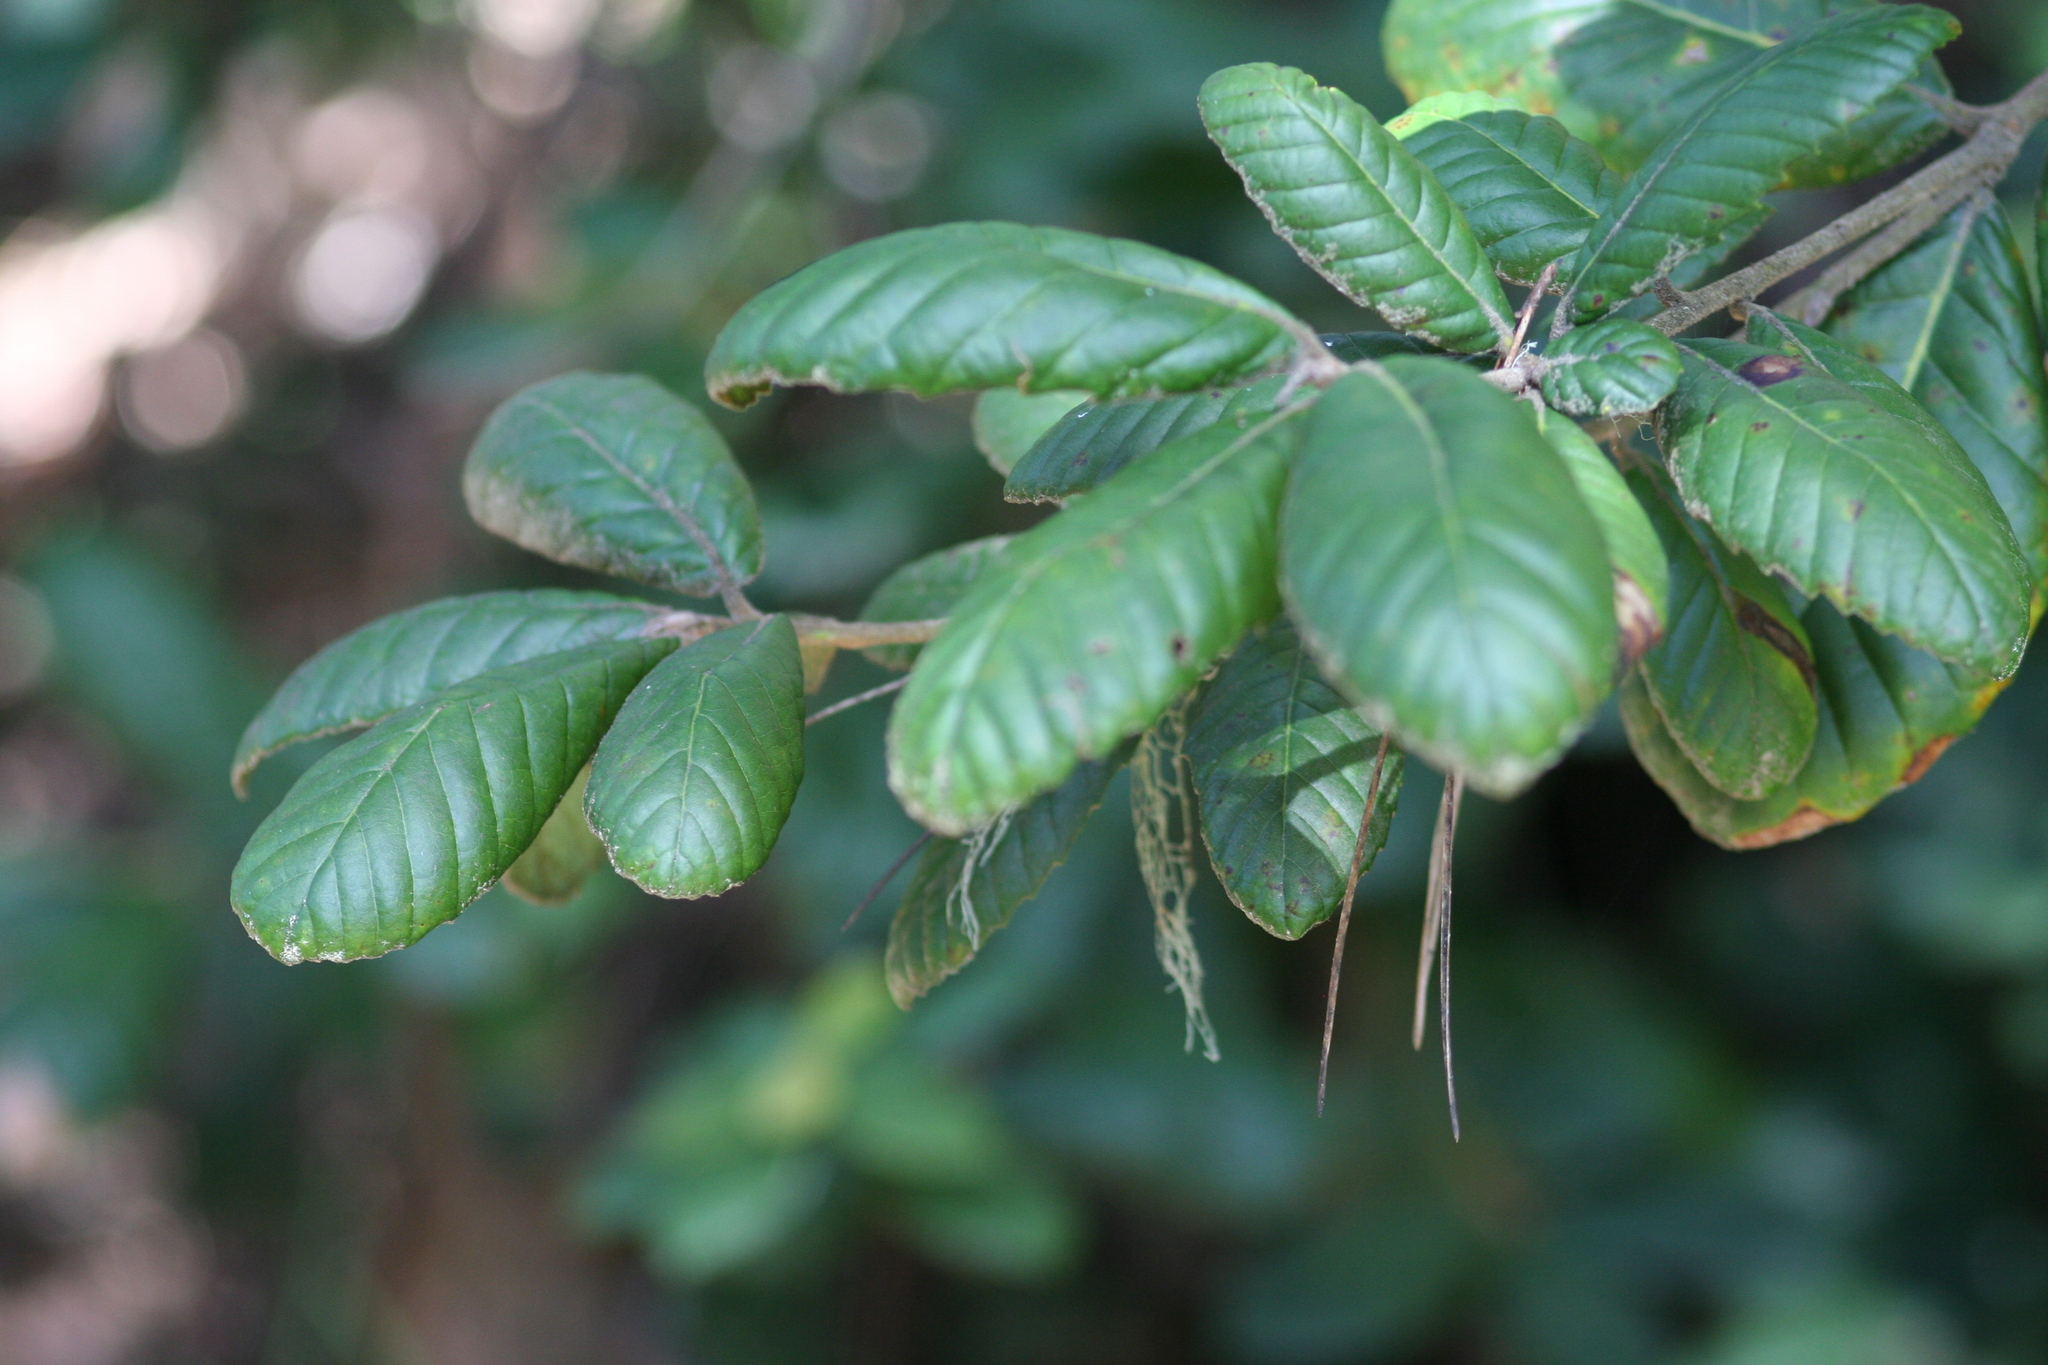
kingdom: Plantae
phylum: Tracheophyta
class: Magnoliopsida
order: Fagales
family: Fagaceae
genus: Notholithocarpus
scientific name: Notholithocarpus densiflorus
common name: Tan bark oak
